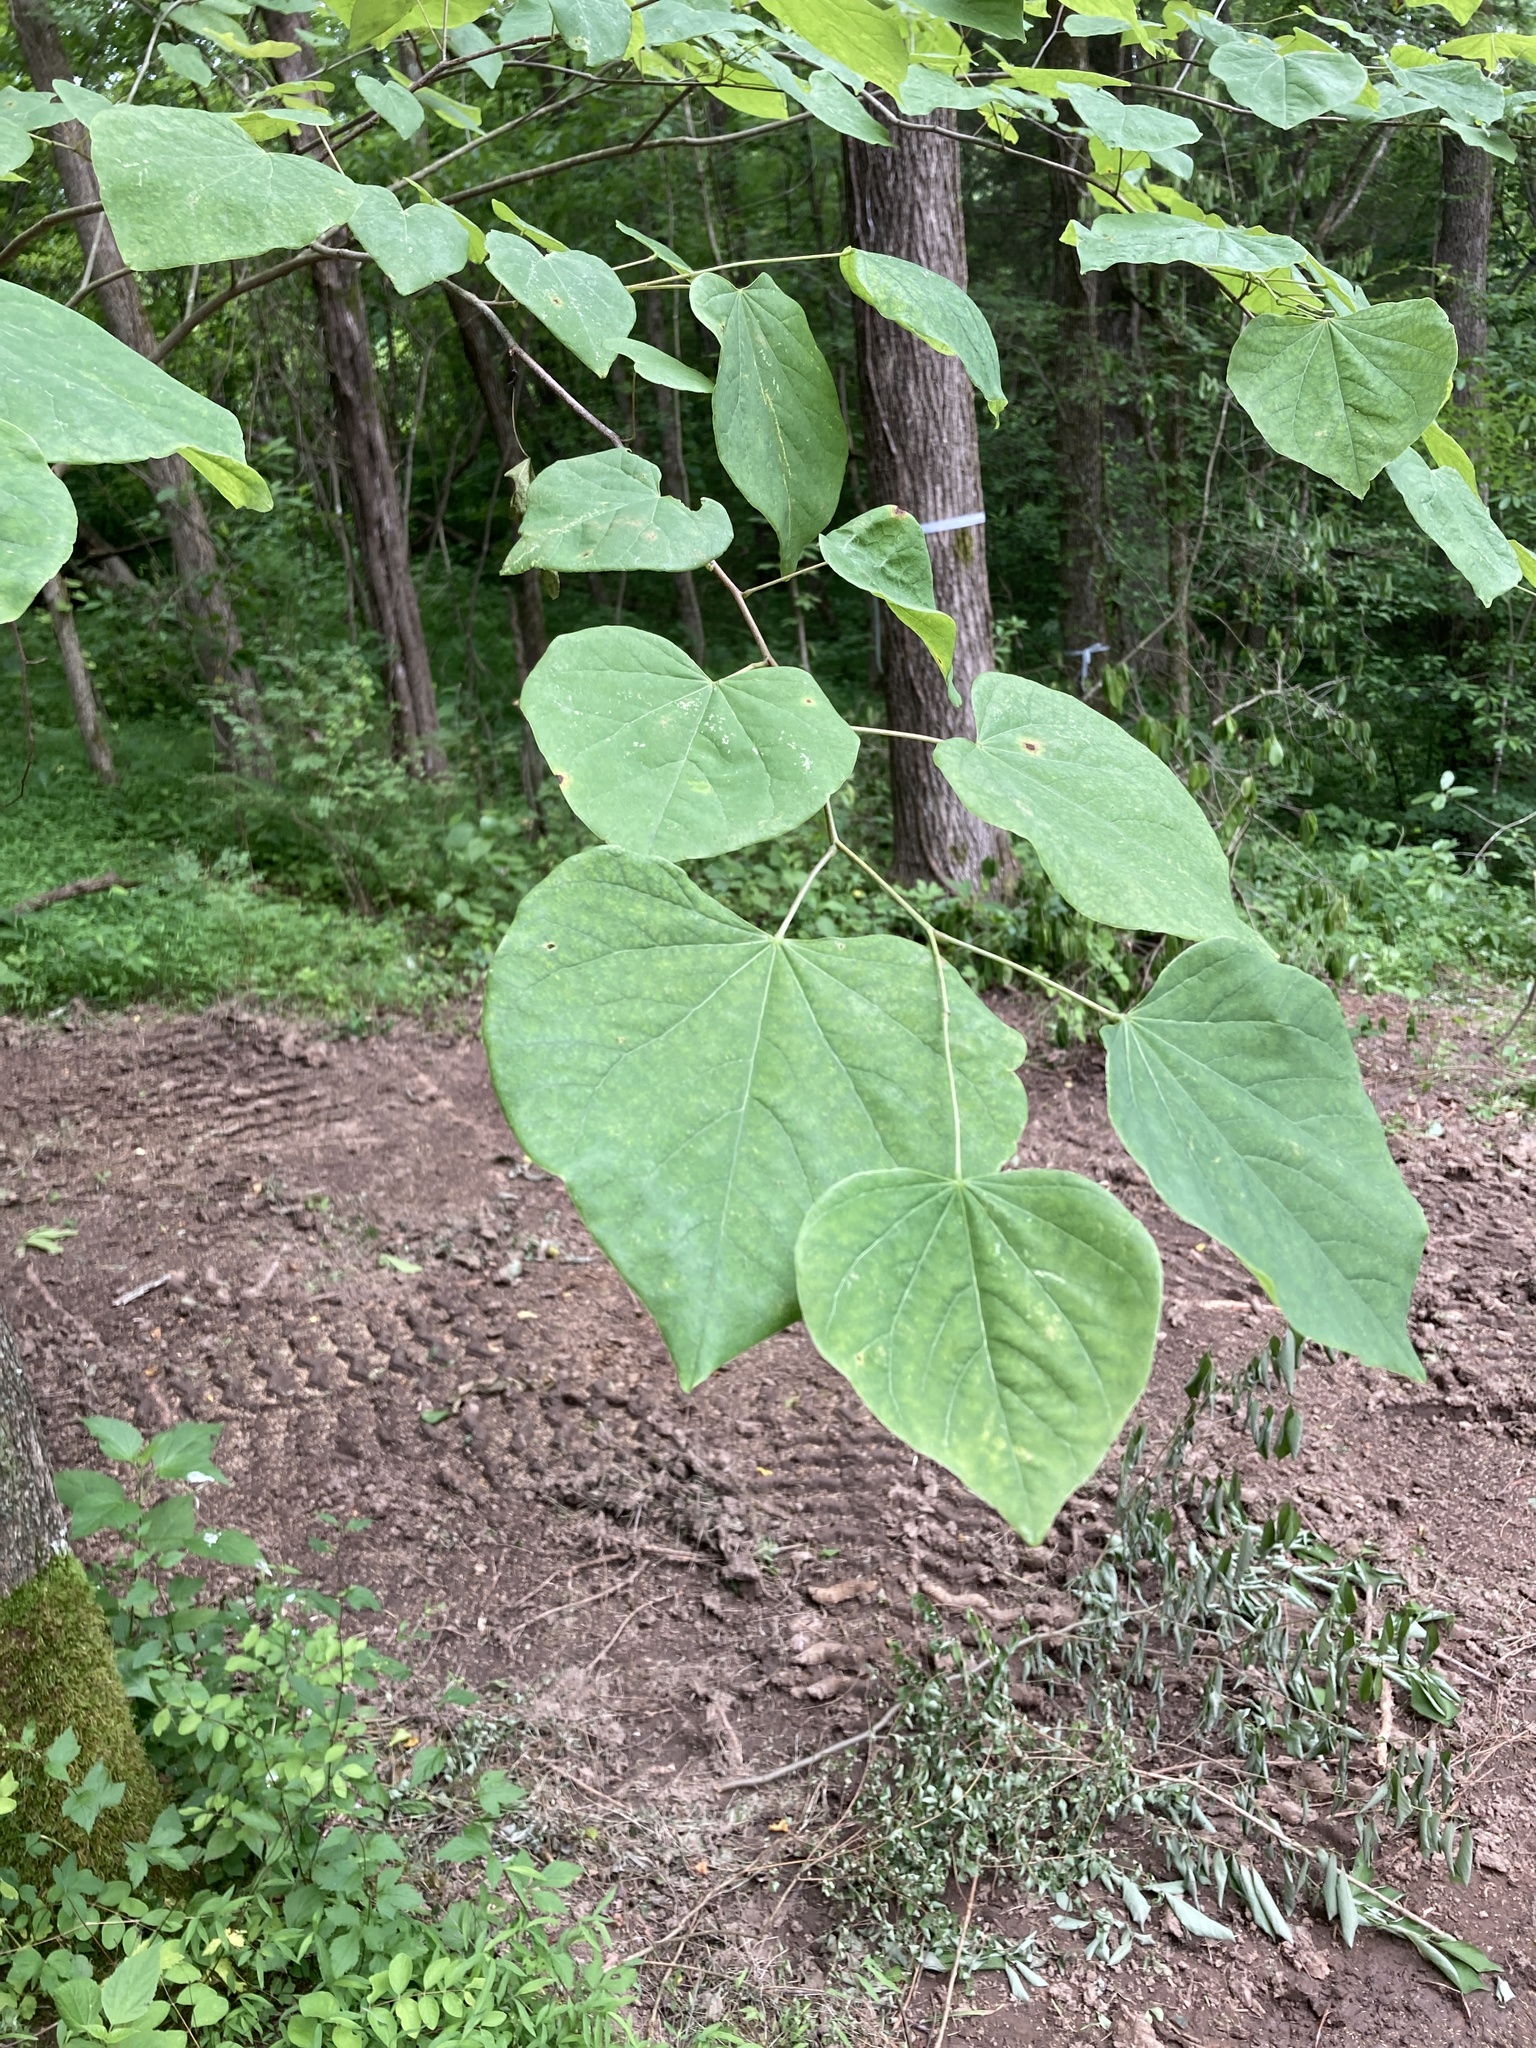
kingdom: Plantae
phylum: Tracheophyta
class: Magnoliopsida
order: Fabales
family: Fabaceae
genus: Cercis
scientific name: Cercis canadensis
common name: Eastern redbud
